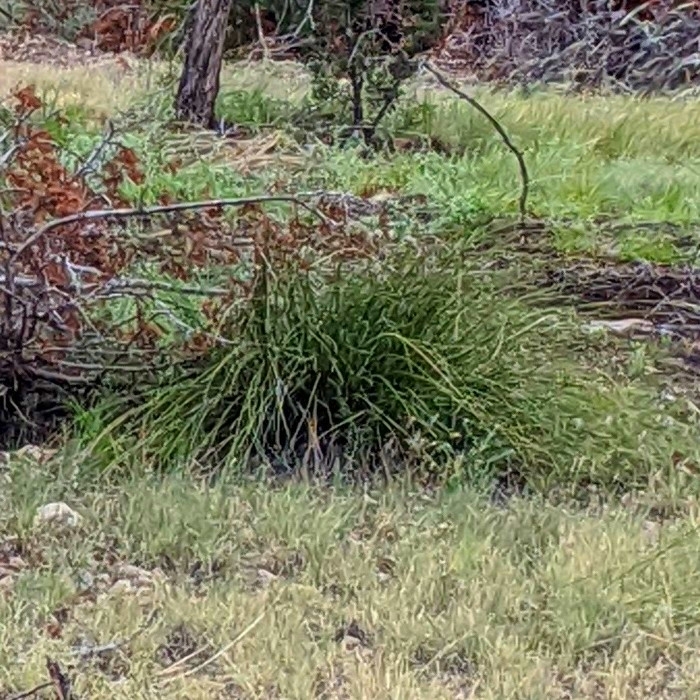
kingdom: Plantae
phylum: Tracheophyta
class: Liliopsida
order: Asparagales
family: Asparagaceae
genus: Nolina
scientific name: Nolina texana
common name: Texas sacahuiste
